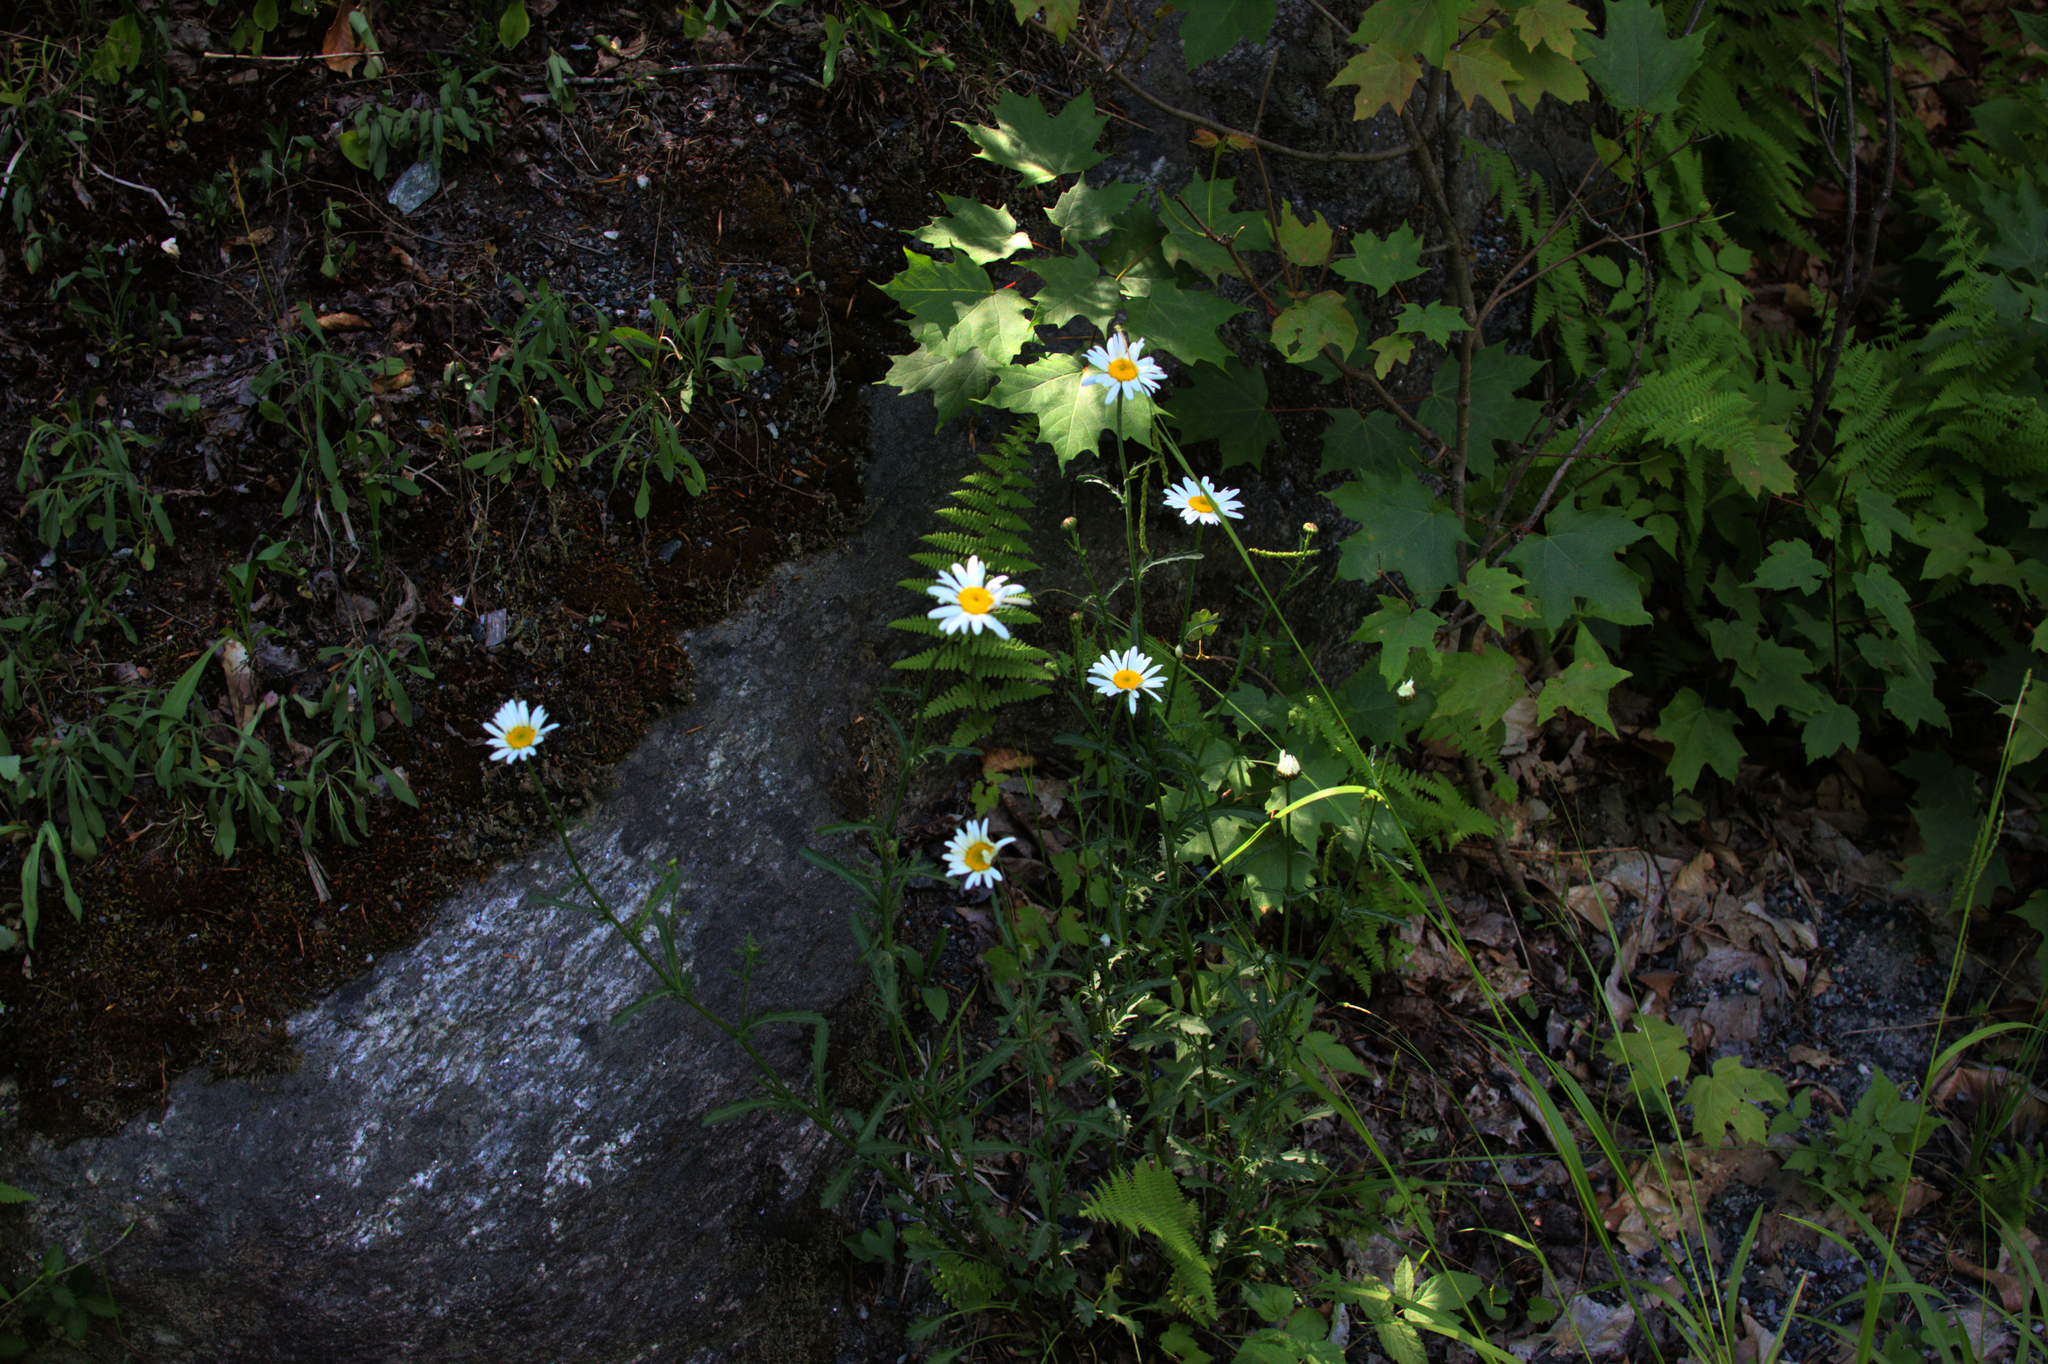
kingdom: Plantae
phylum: Tracheophyta
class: Magnoliopsida
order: Asterales
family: Asteraceae
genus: Leucanthemum
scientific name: Leucanthemum vulgare
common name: Oxeye daisy
